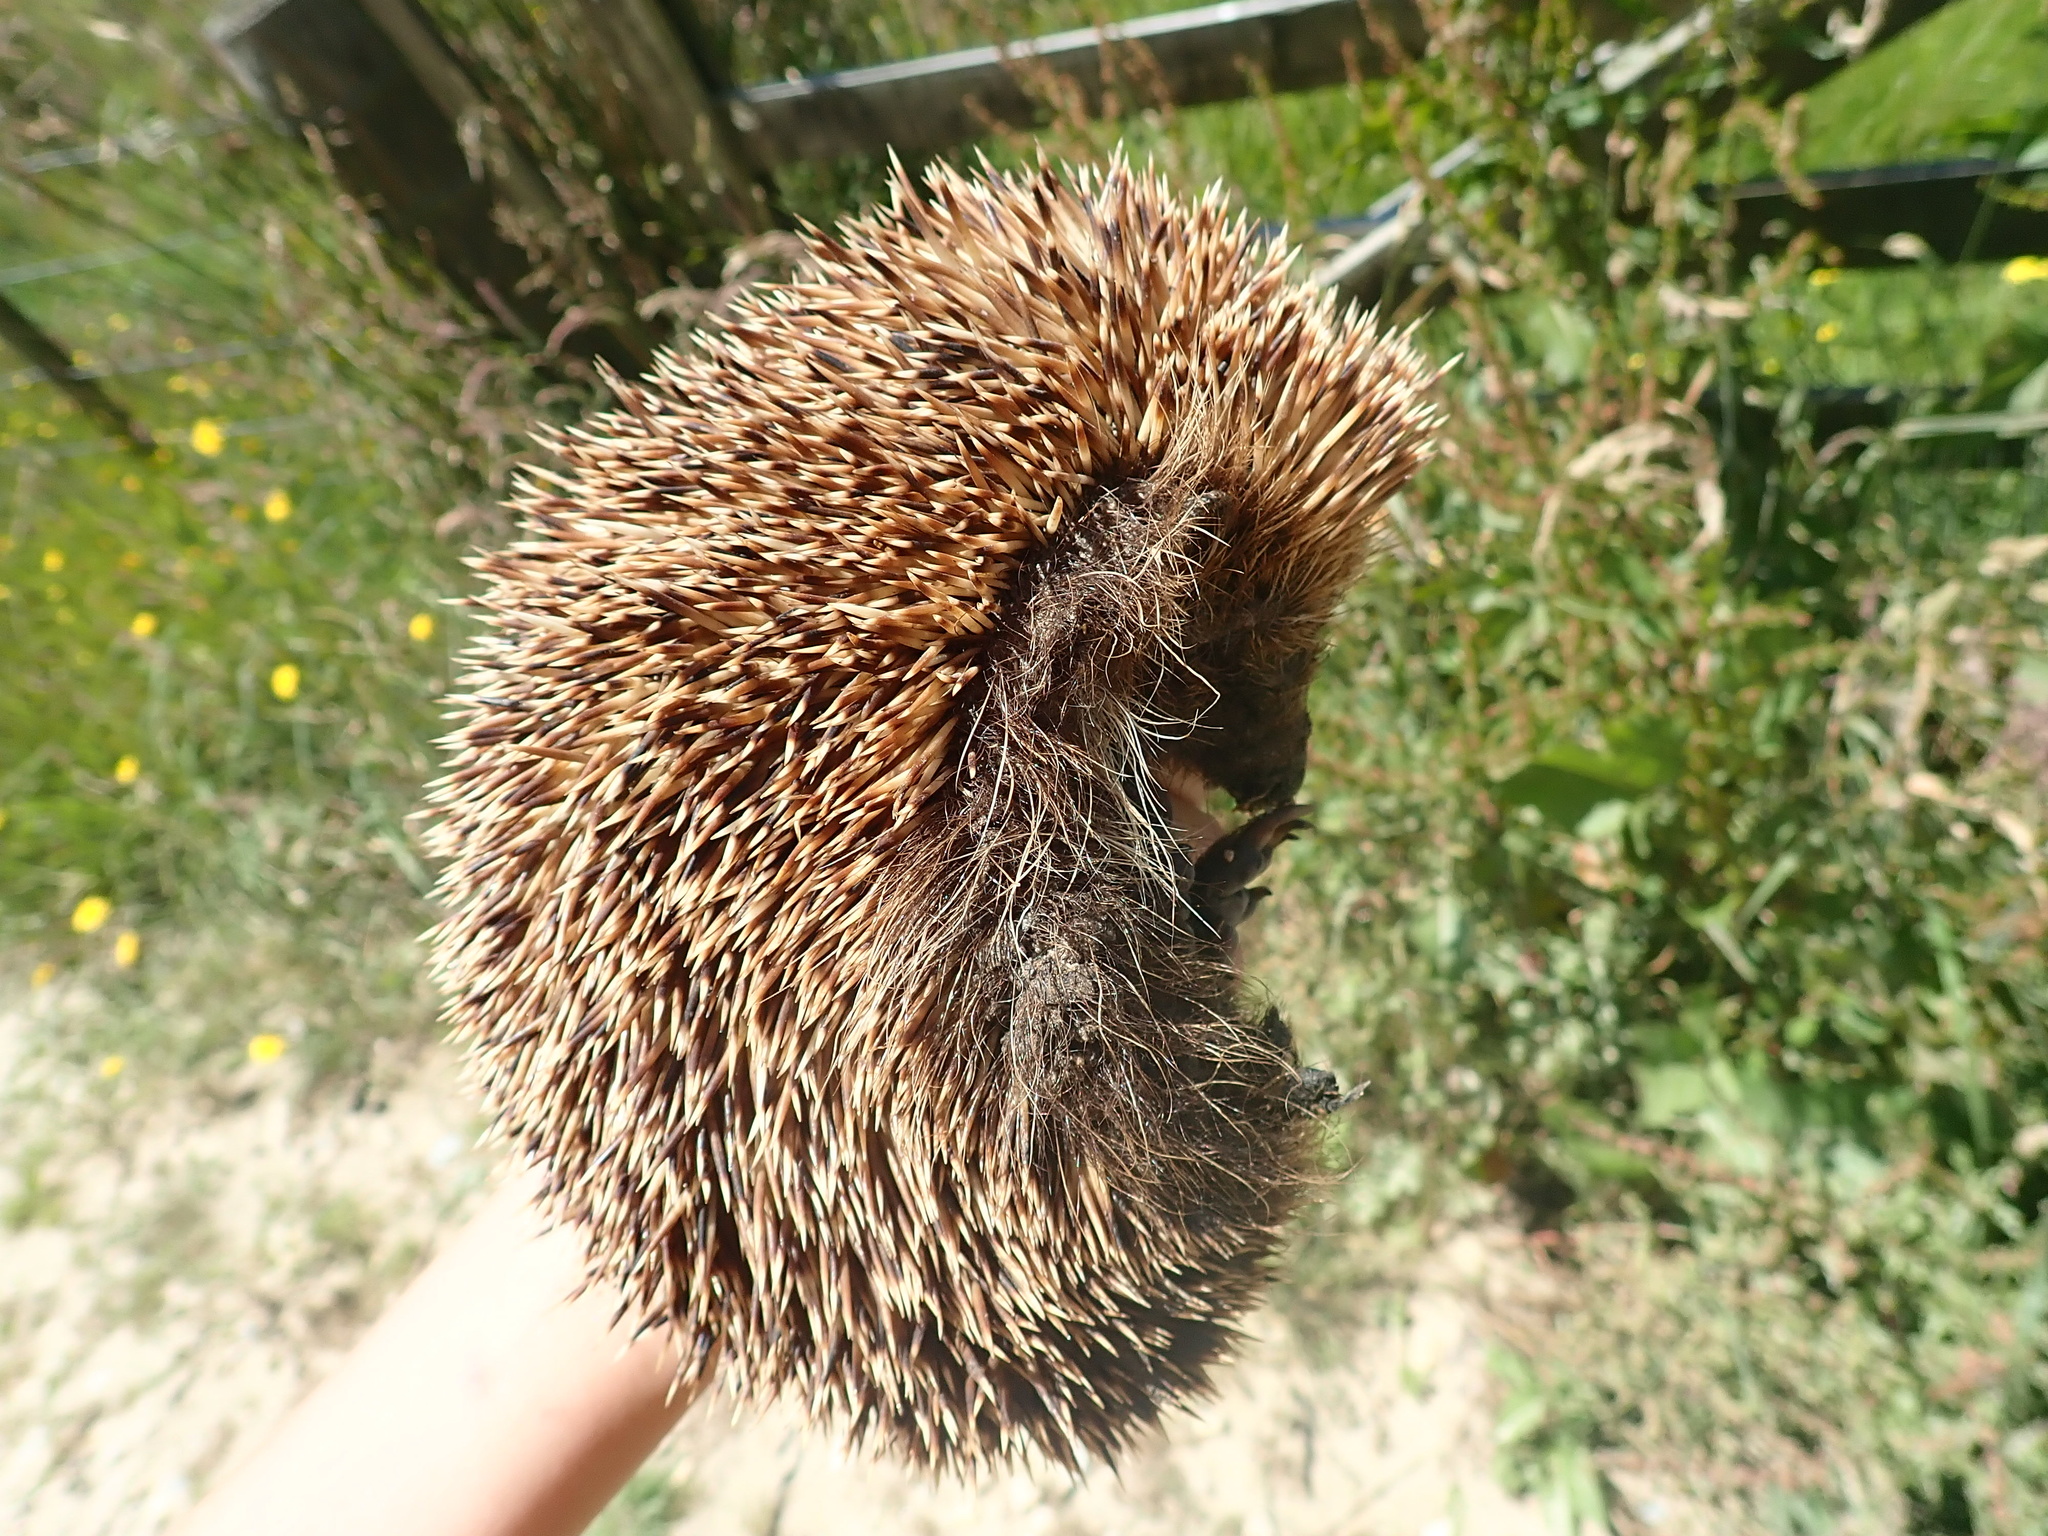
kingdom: Animalia
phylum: Chordata
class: Mammalia
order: Erinaceomorpha
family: Erinaceidae
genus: Erinaceus
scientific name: Erinaceus europaeus
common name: West european hedgehog
